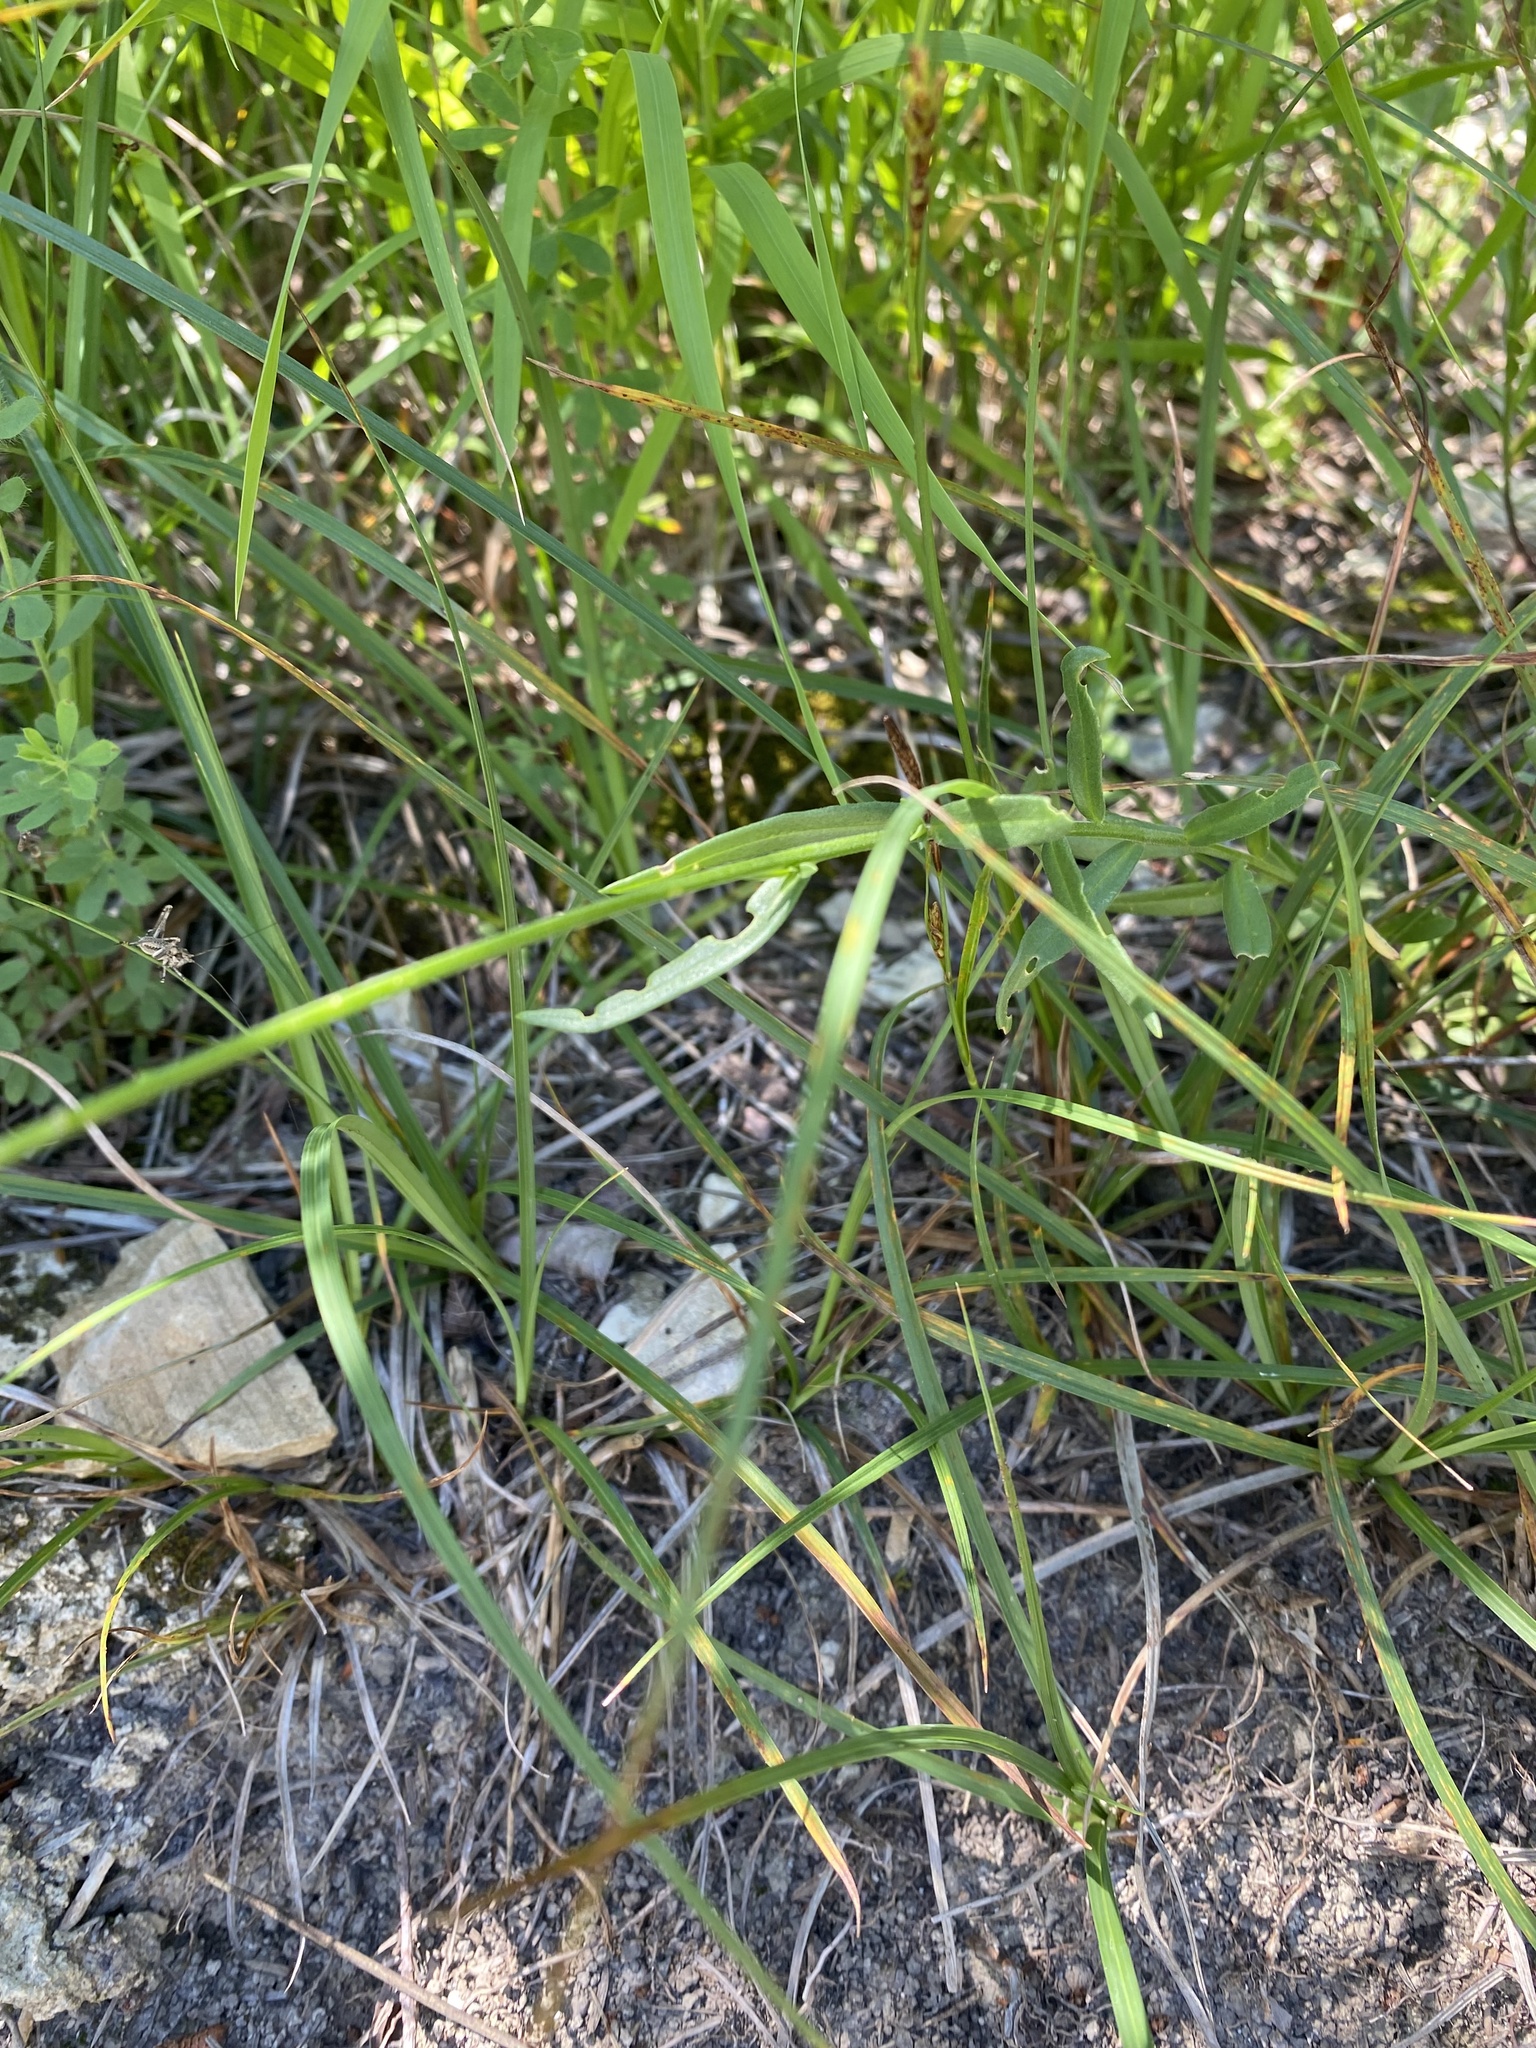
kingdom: Plantae
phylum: Tracheophyta
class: Magnoliopsida
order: Fabales
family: Polygalaceae
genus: Polygala
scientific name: Polygala major
